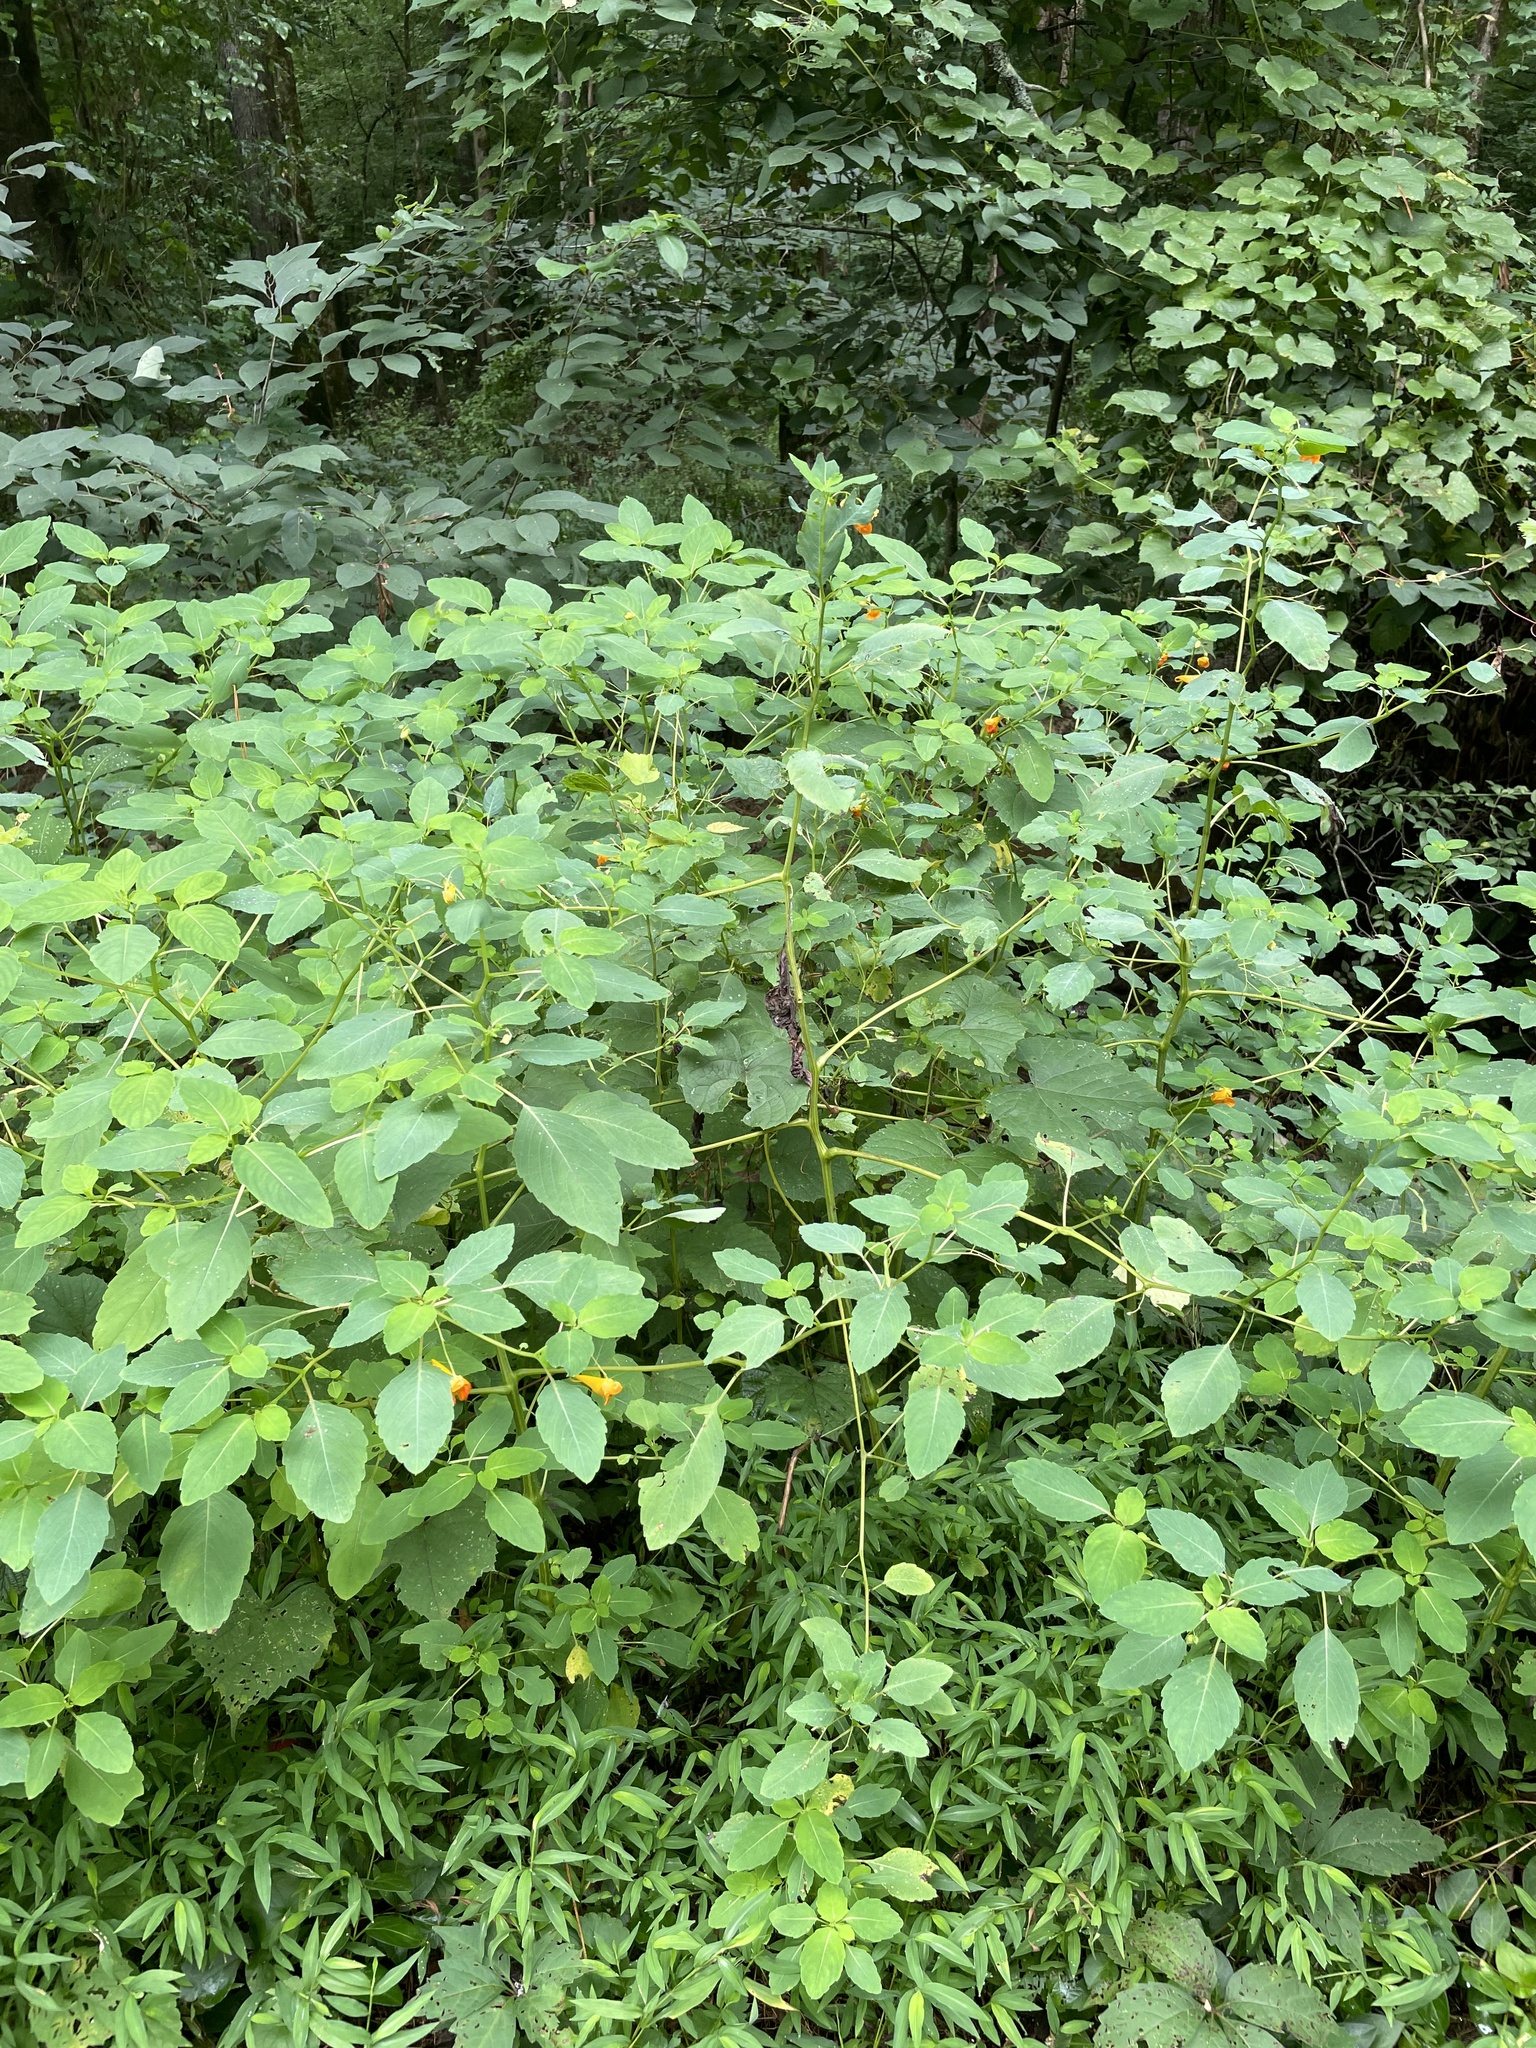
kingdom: Plantae
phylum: Tracheophyta
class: Magnoliopsida
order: Ericales
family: Balsaminaceae
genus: Impatiens
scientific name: Impatiens capensis
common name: Orange balsam
